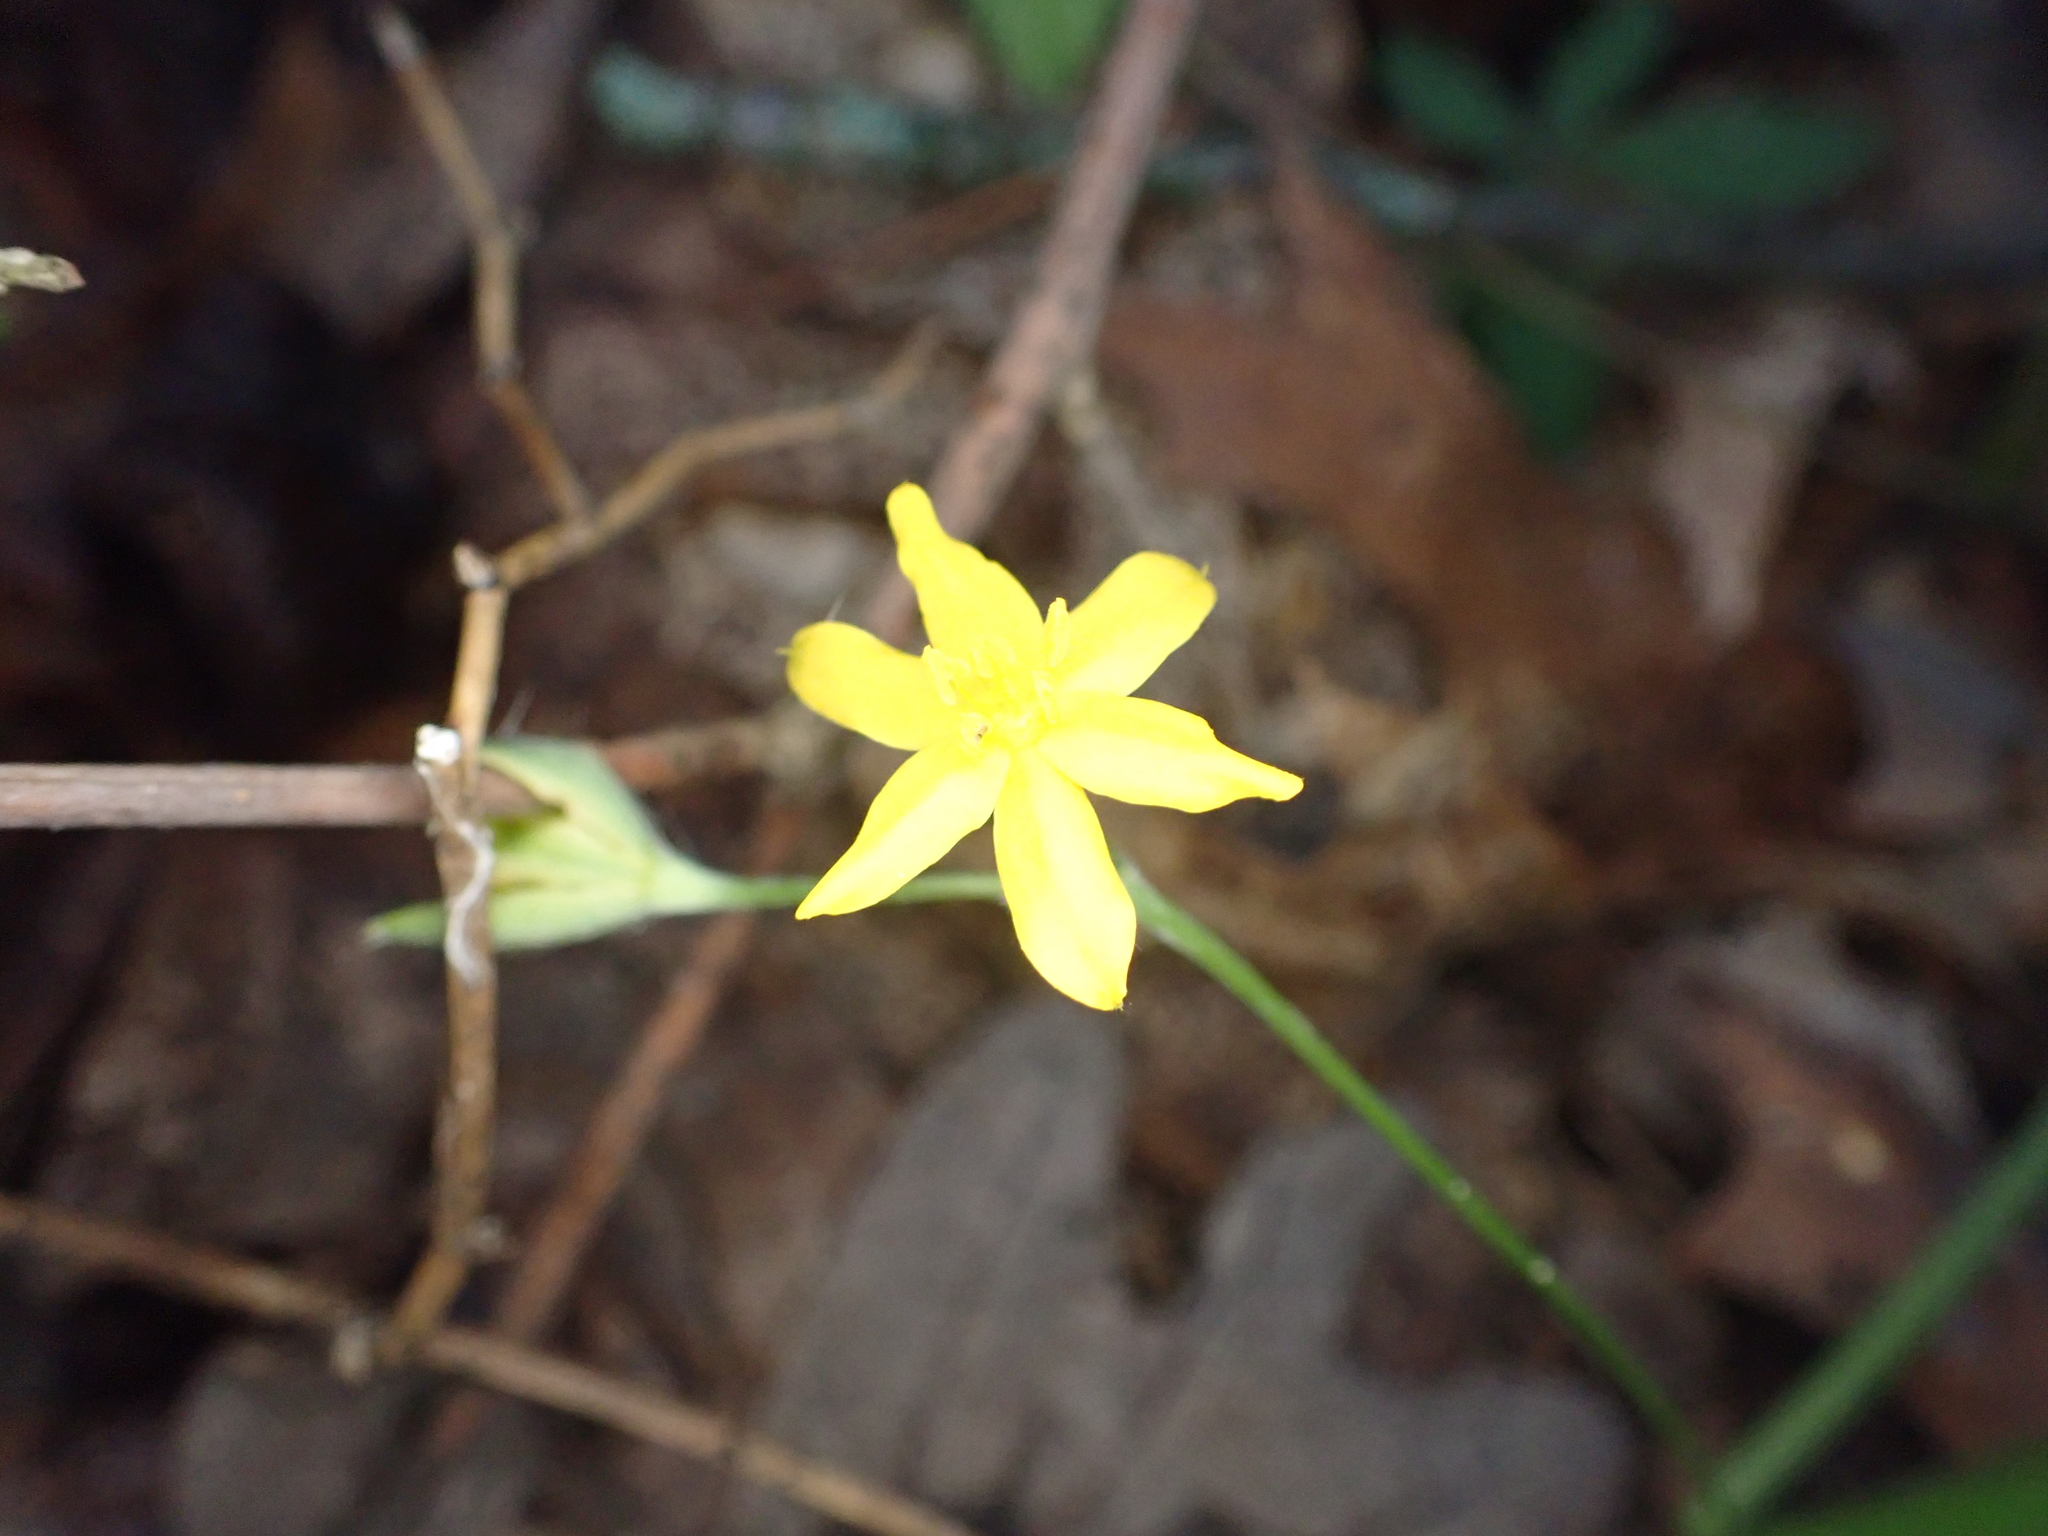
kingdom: Plantae
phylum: Tracheophyta
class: Liliopsida
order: Asparagales
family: Hypoxidaceae
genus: Hypoxis
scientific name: Hypoxis hirsuta
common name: Common goldstar
